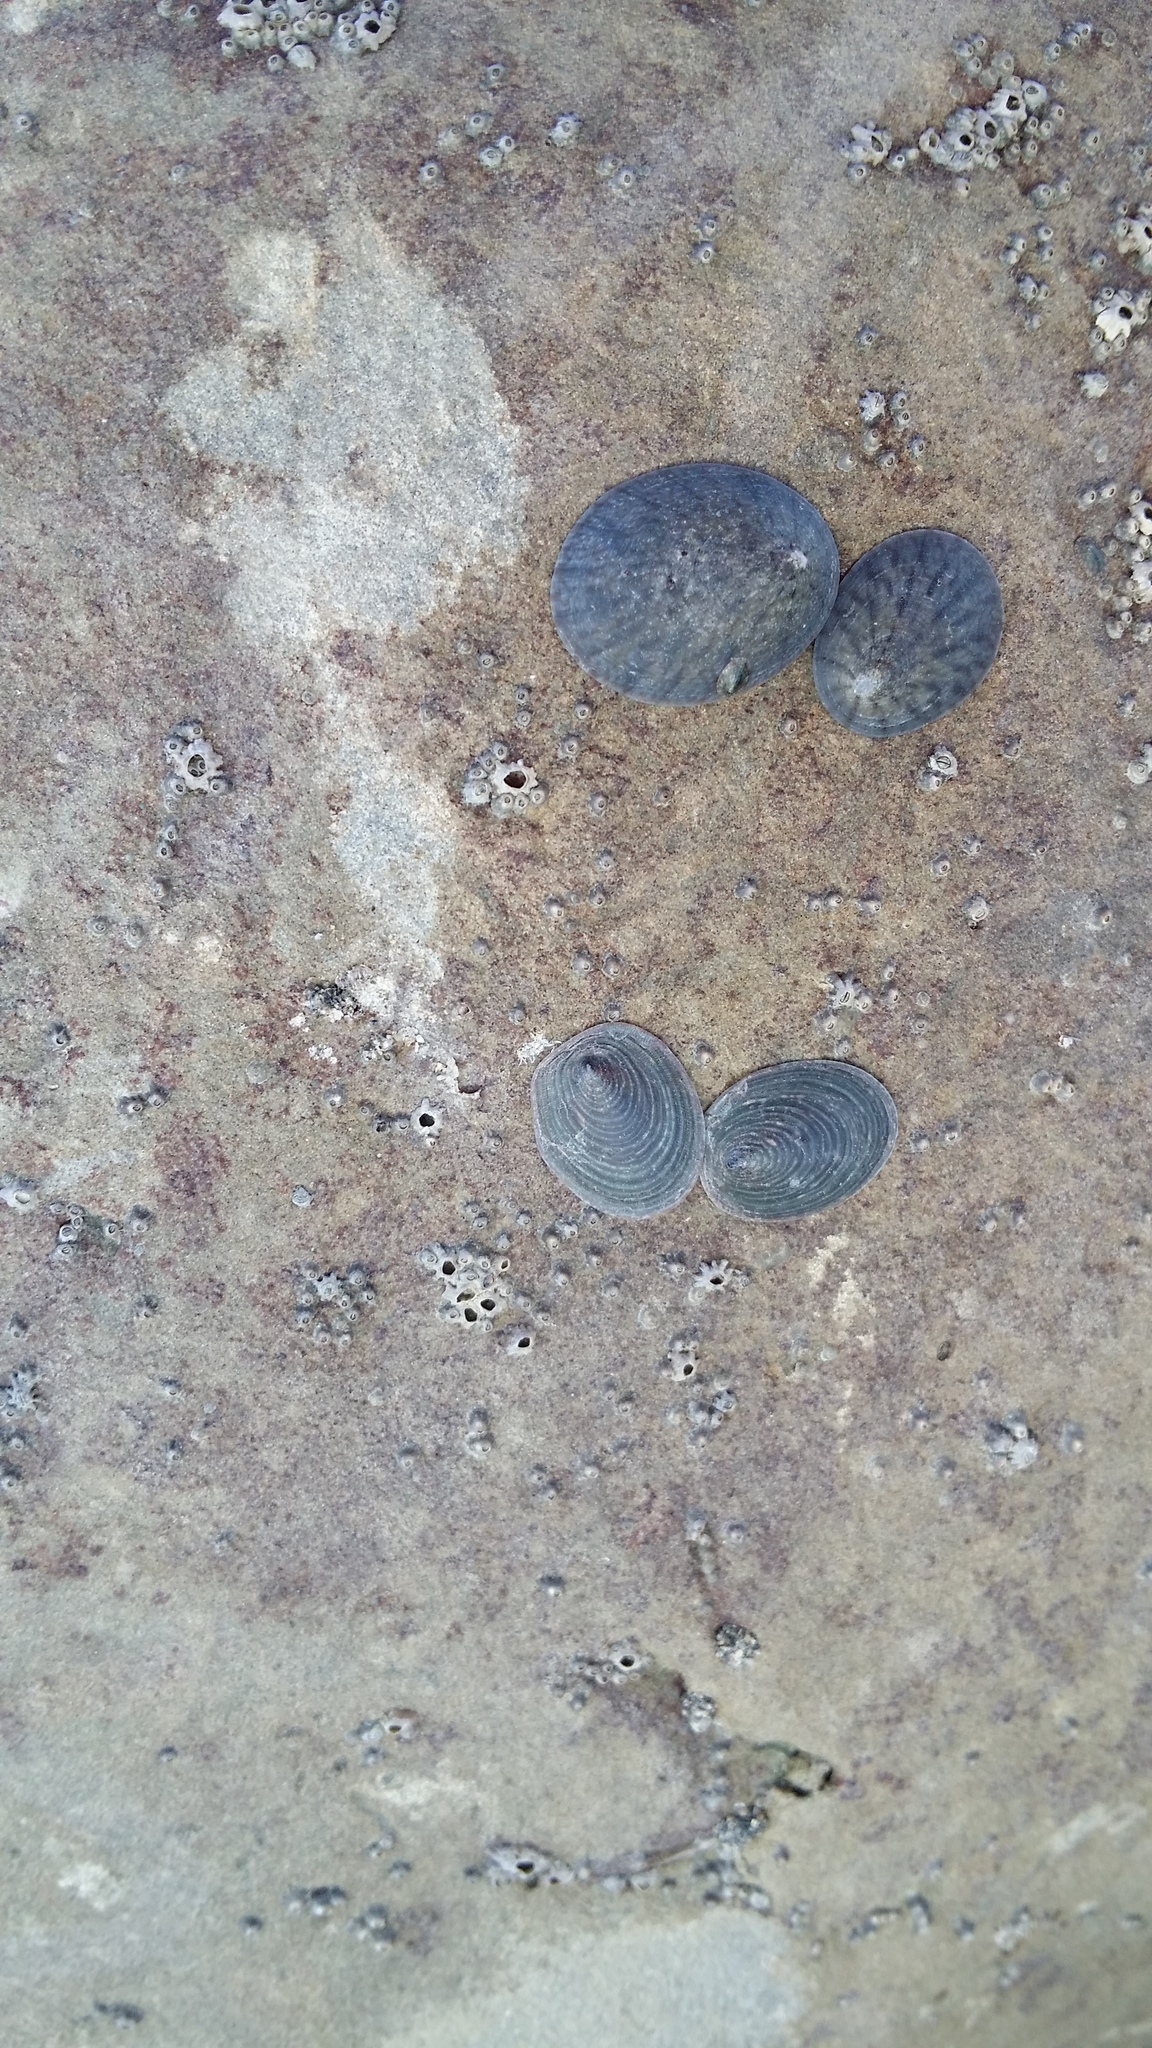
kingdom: Animalia
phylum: Mollusca
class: Gastropoda
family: Lottiidae
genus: Atalacmea
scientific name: Atalacmea fragilis
